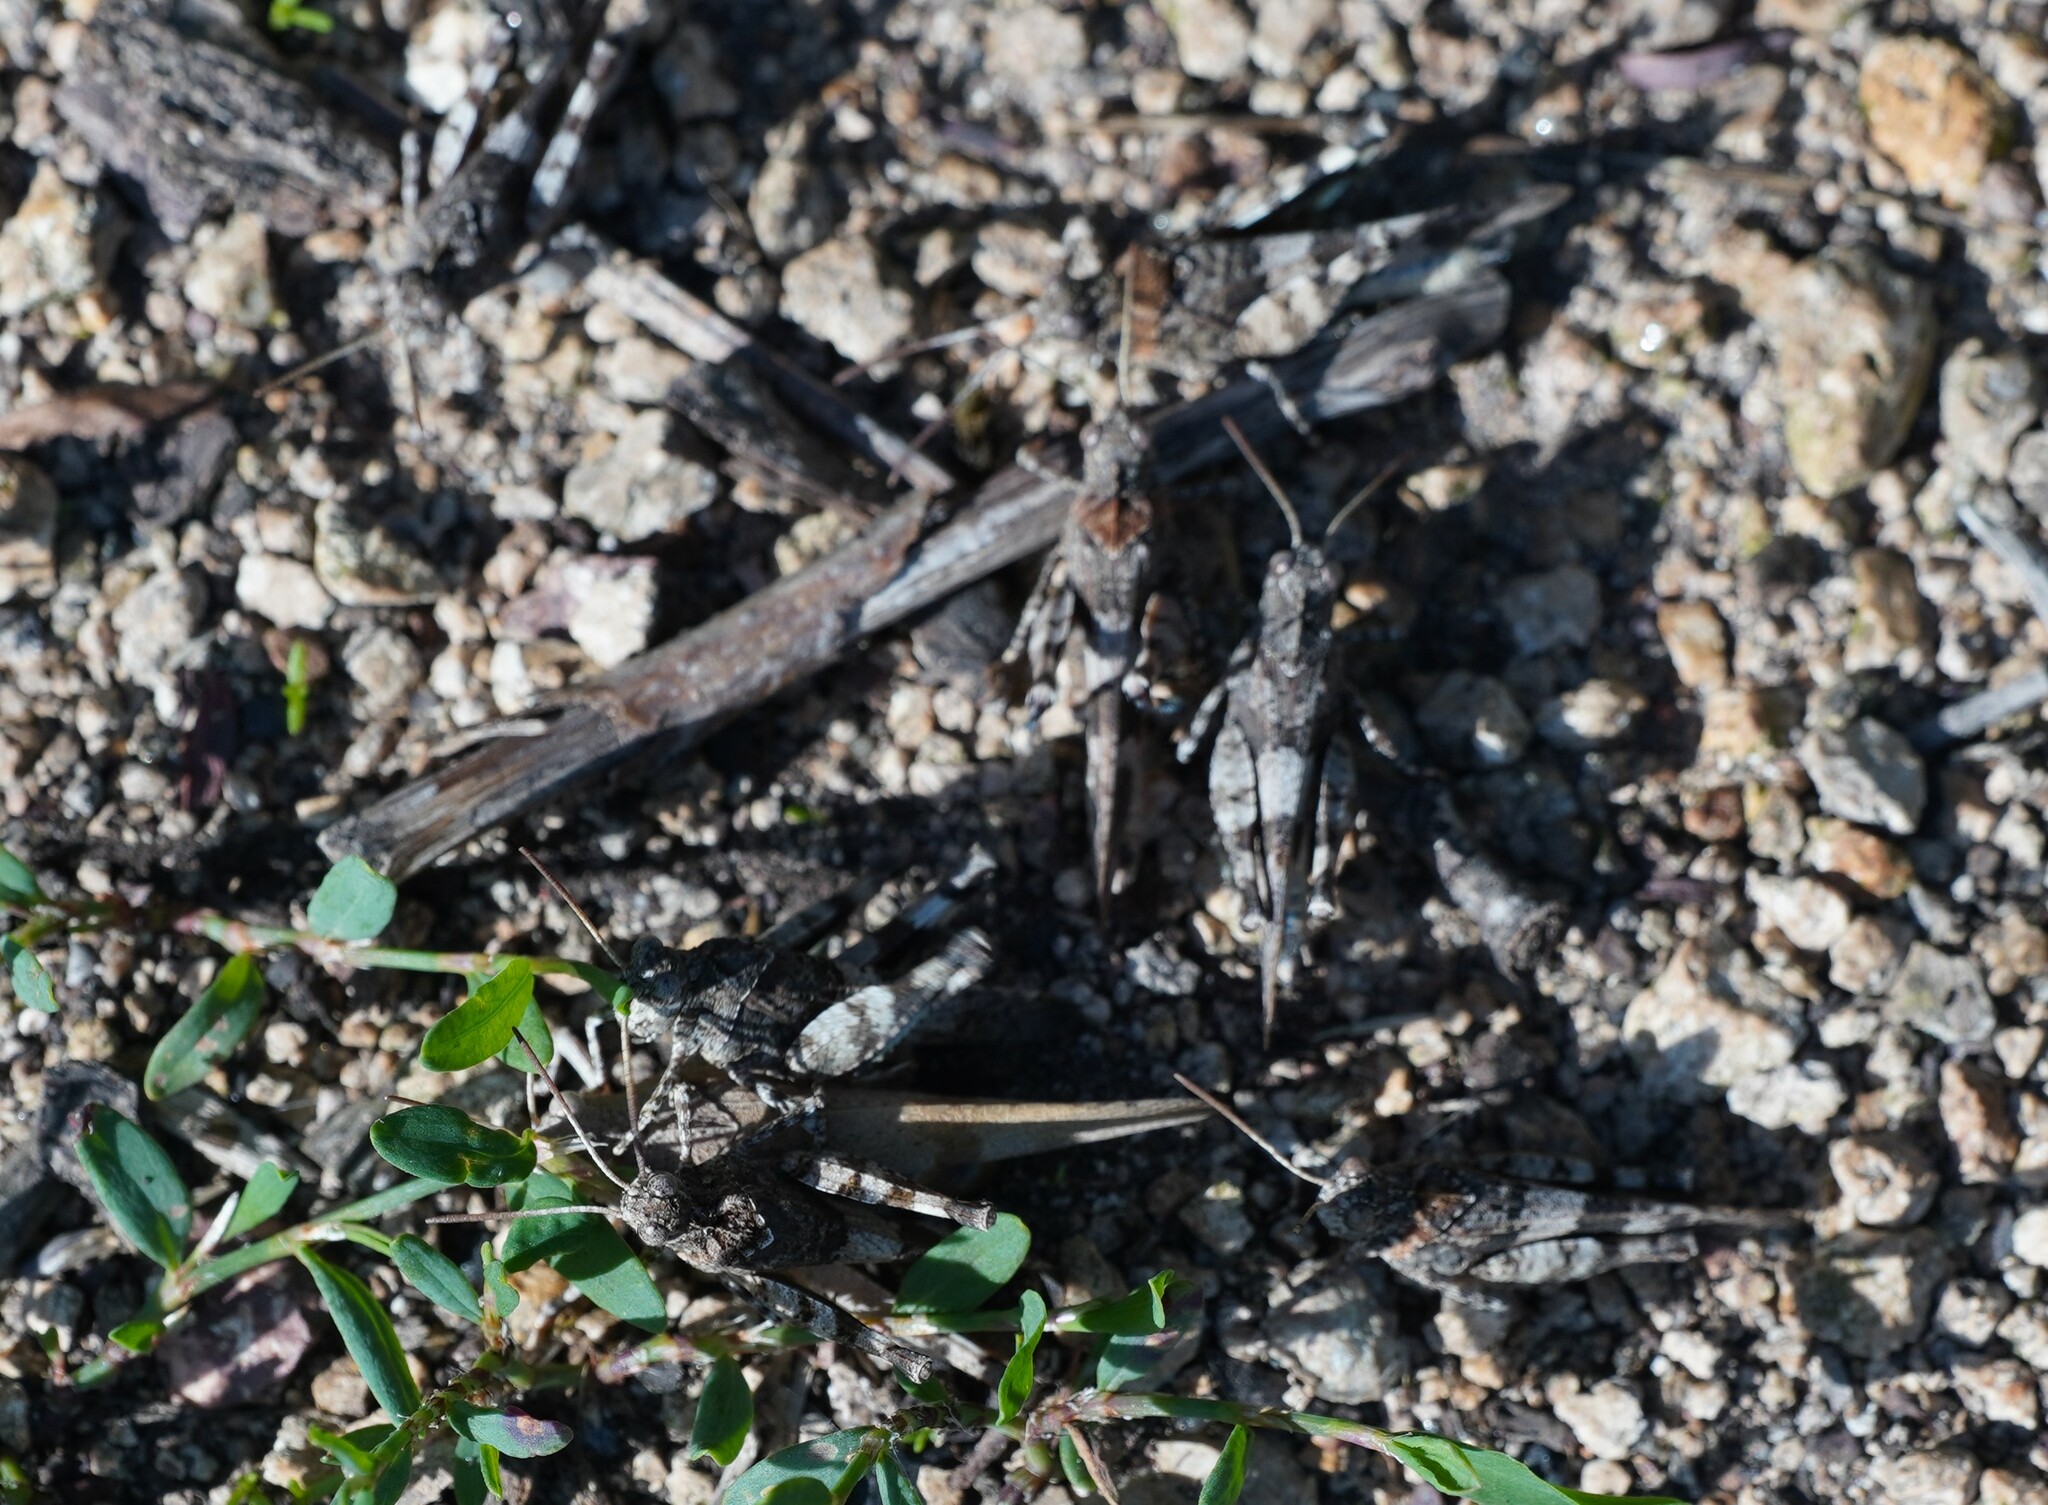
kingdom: Animalia
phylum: Arthropoda
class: Insecta
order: Orthoptera
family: Acrididae
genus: Oedipoda
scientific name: Oedipoda caerulescens
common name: Blue-winged grasshopper
